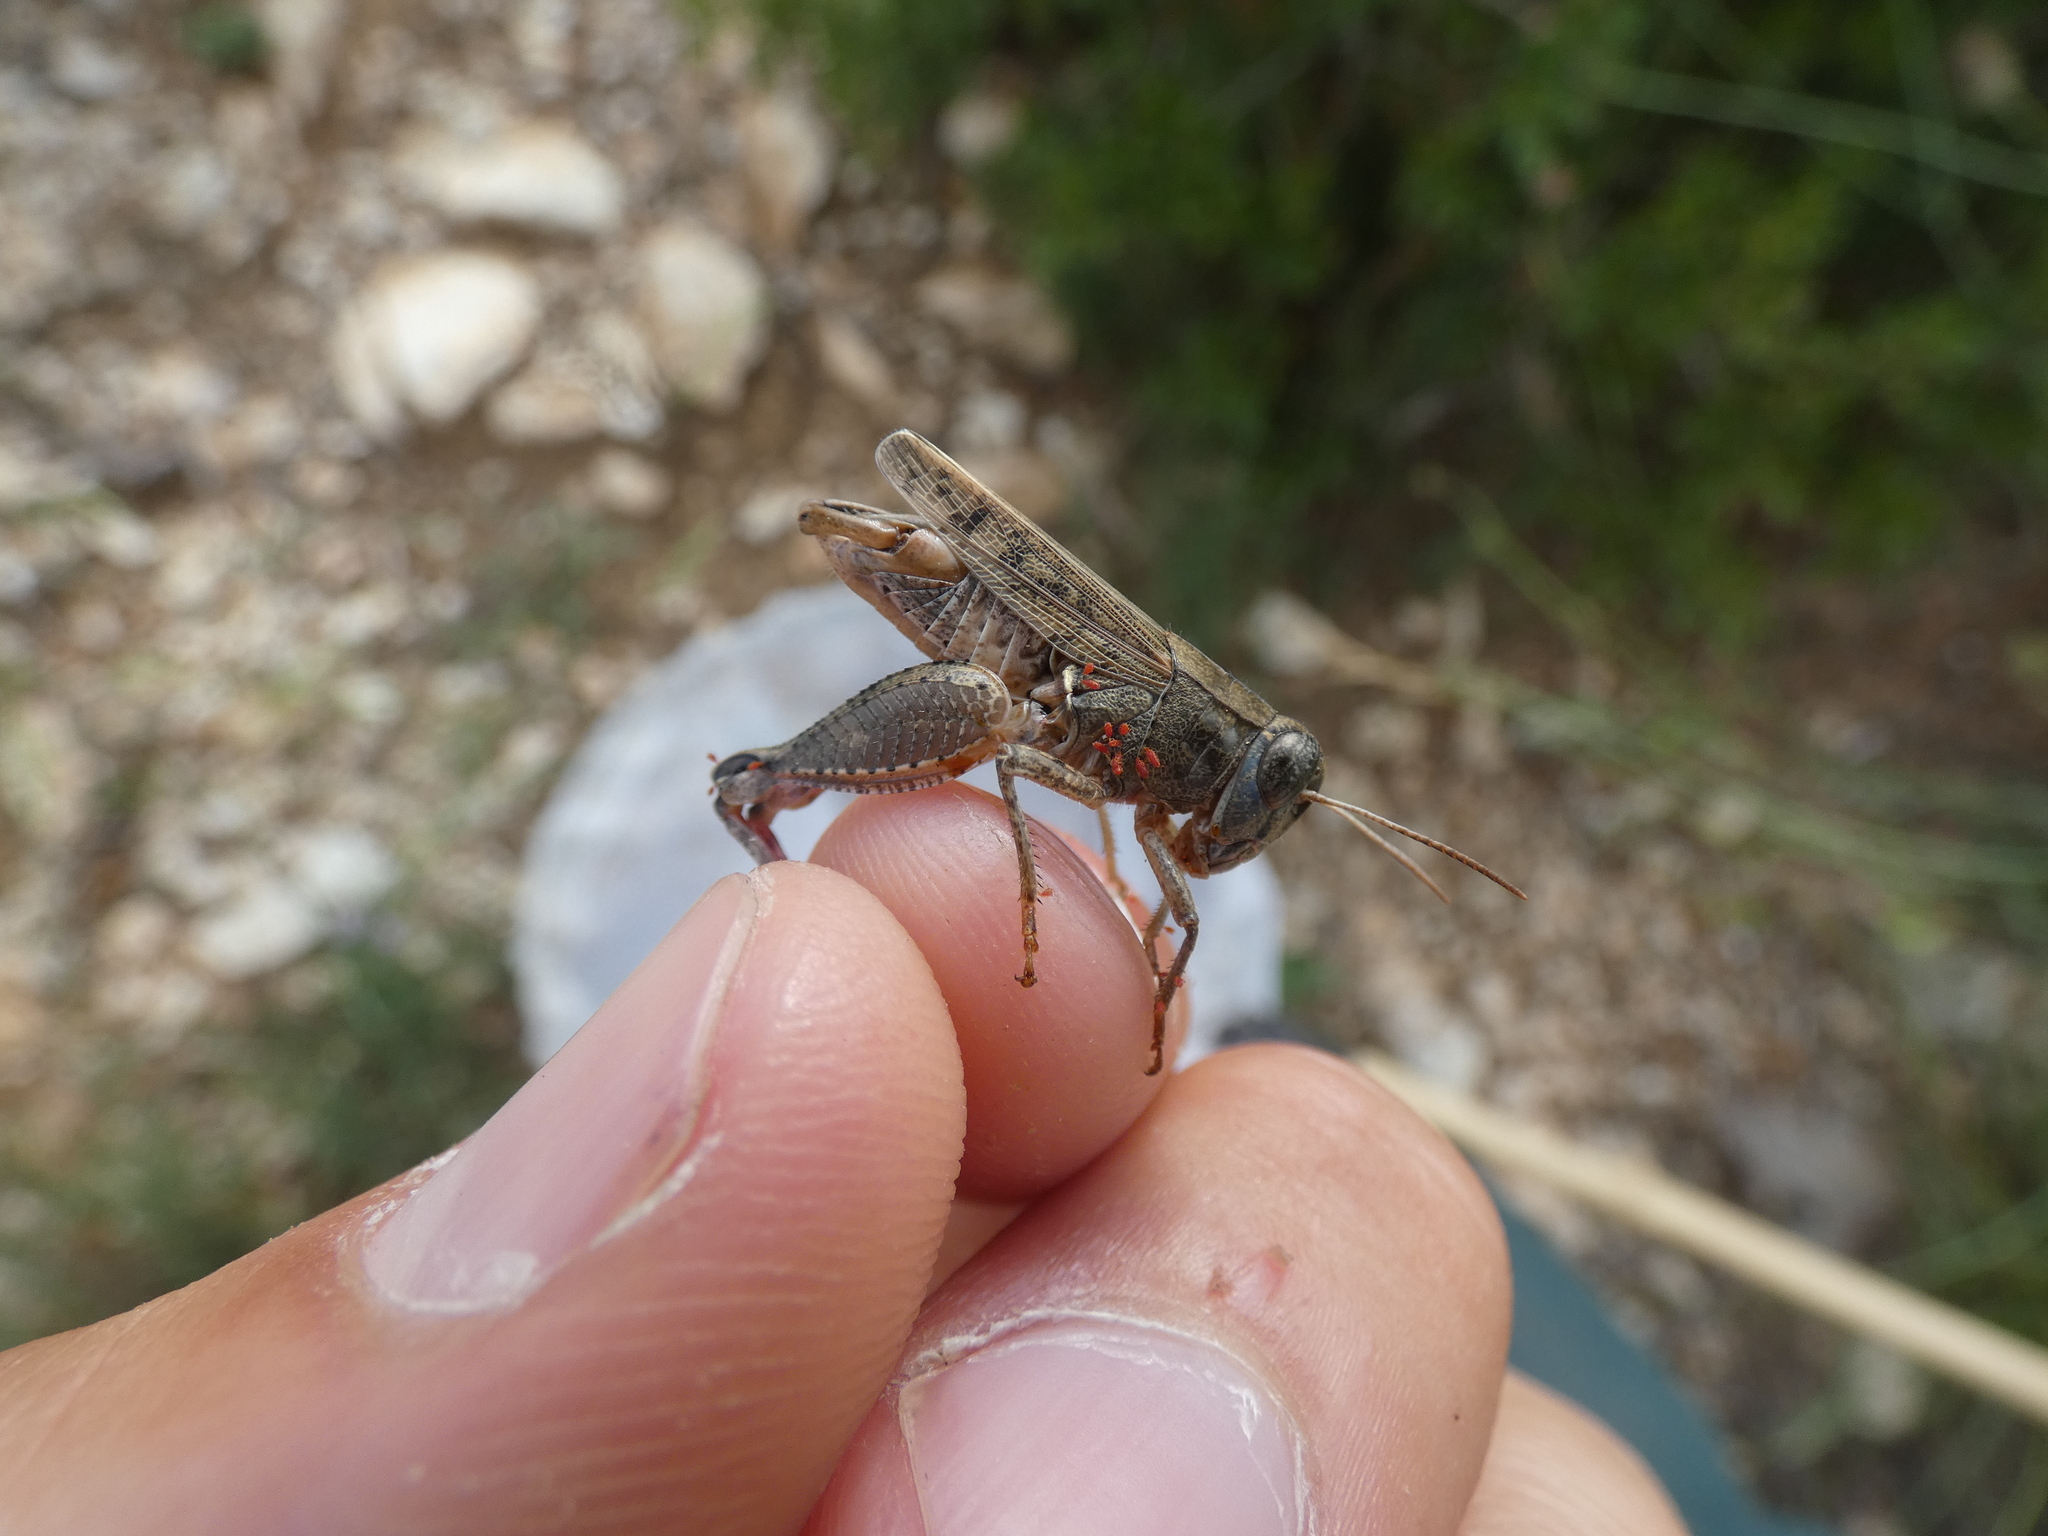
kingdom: Animalia
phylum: Arthropoda
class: Insecta
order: Orthoptera
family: Acrididae
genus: Calliptamus
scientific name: Calliptamus barbarus
